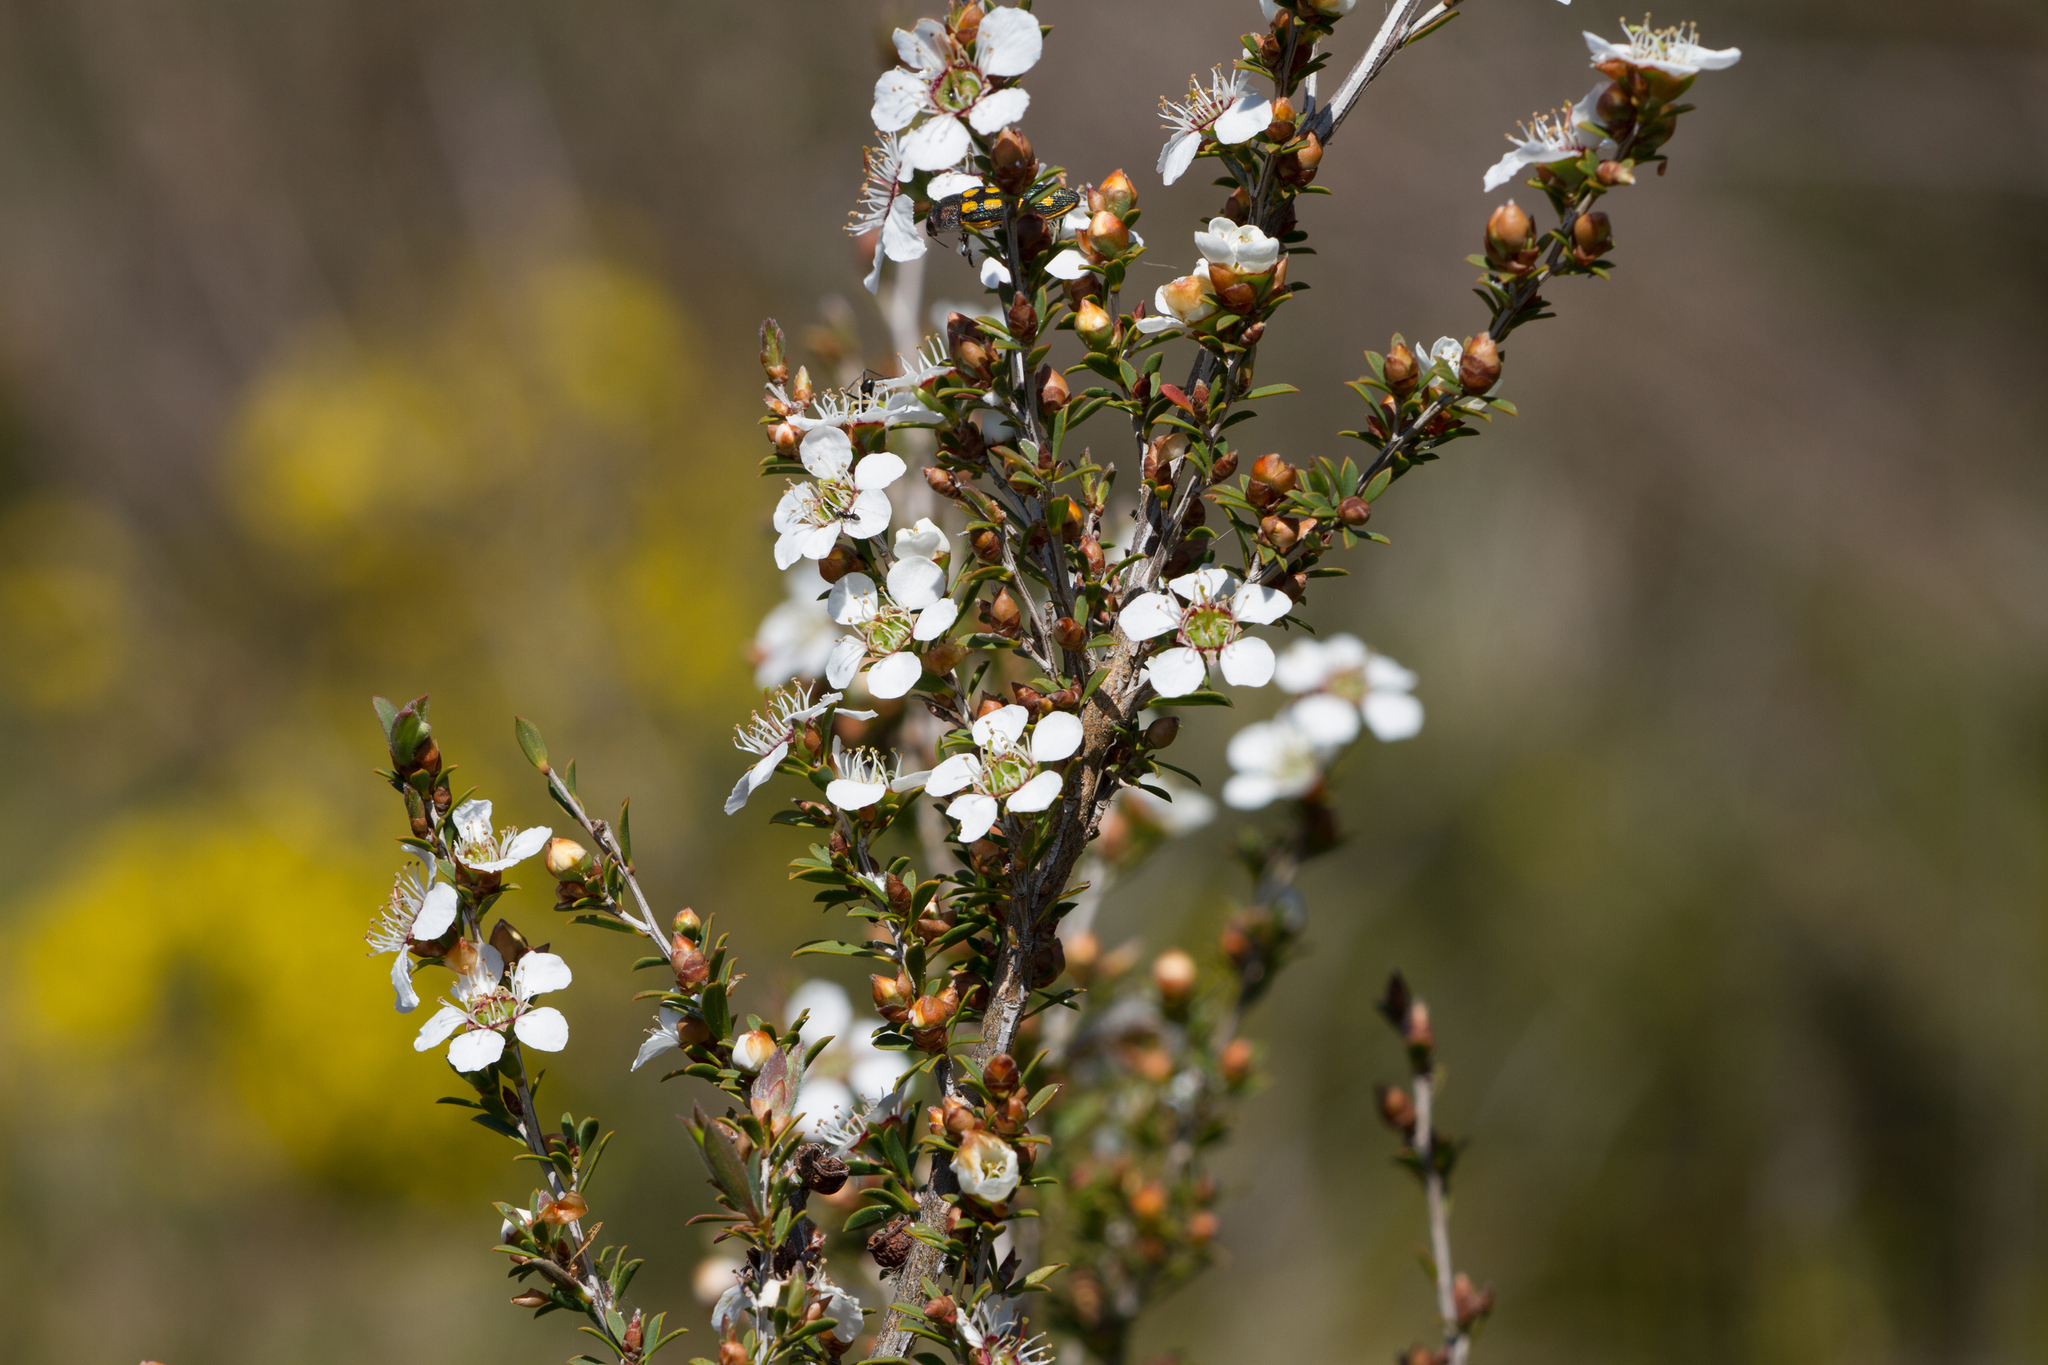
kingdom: Plantae
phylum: Tracheophyta
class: Magnoliopsida
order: Myrtales
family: Myrtaceae
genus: Leptospermum
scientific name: Leptospermum myrsinoides
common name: Heath teatree
